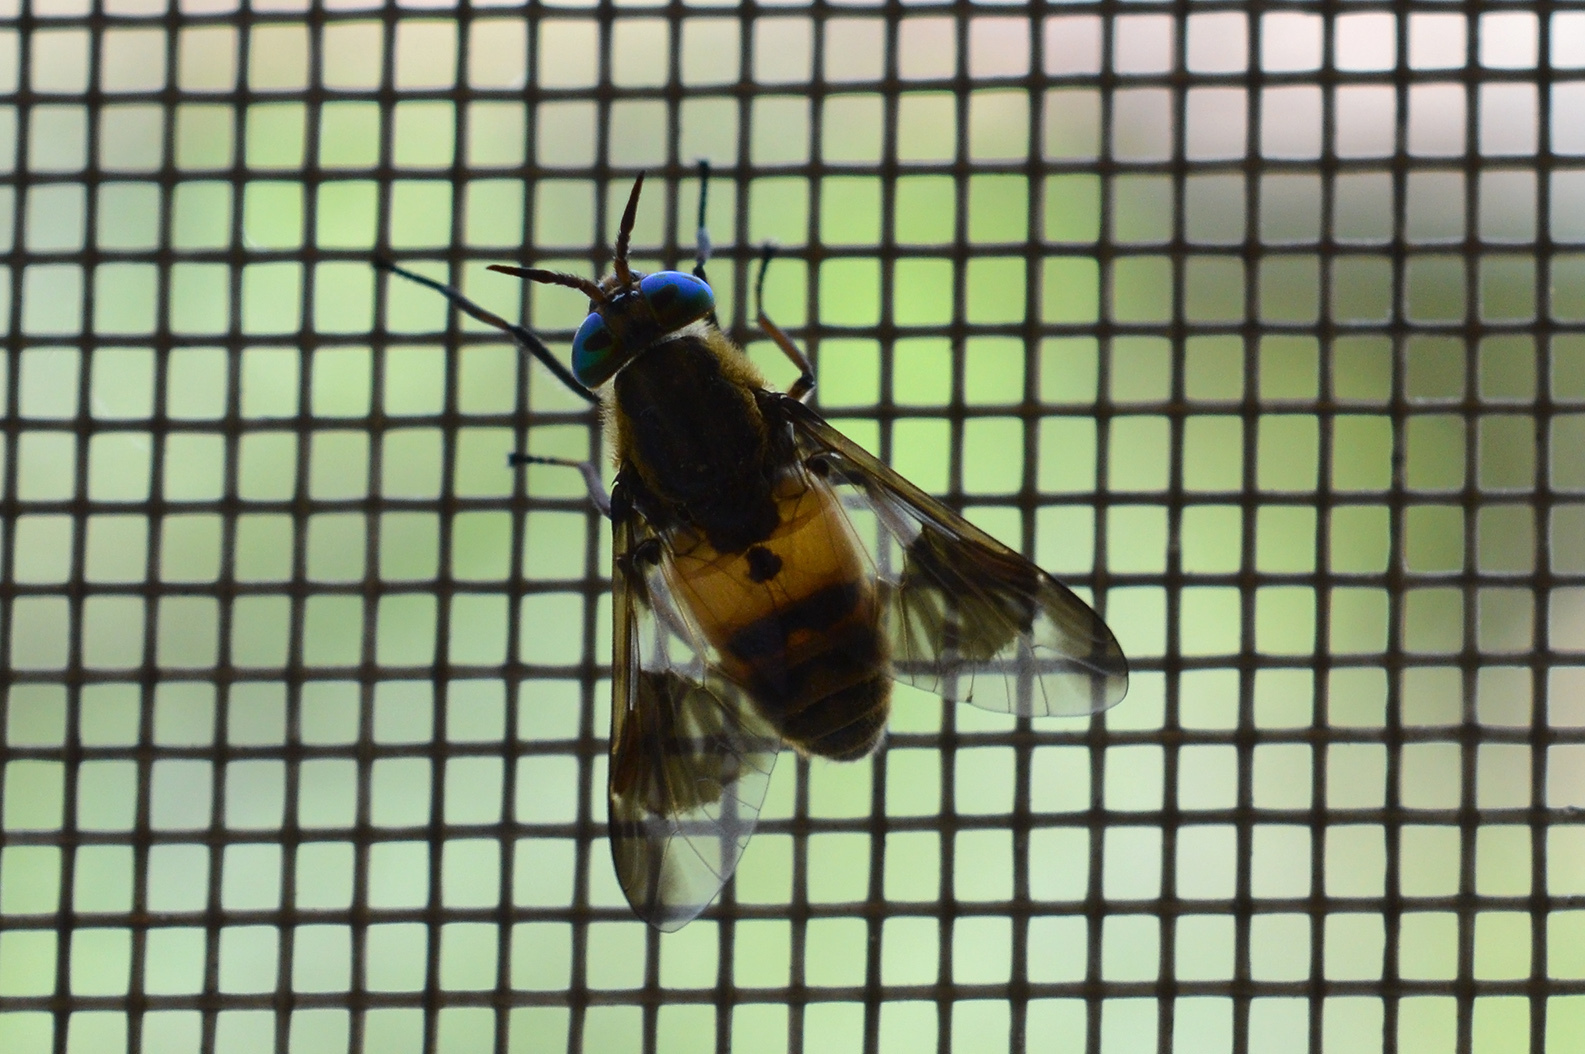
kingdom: Animalia
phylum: Arthropoda
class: Insecta
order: Diptera
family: Tabanidae
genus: Chrysops
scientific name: Chrysops viduatus
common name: Square-spot deerfly
